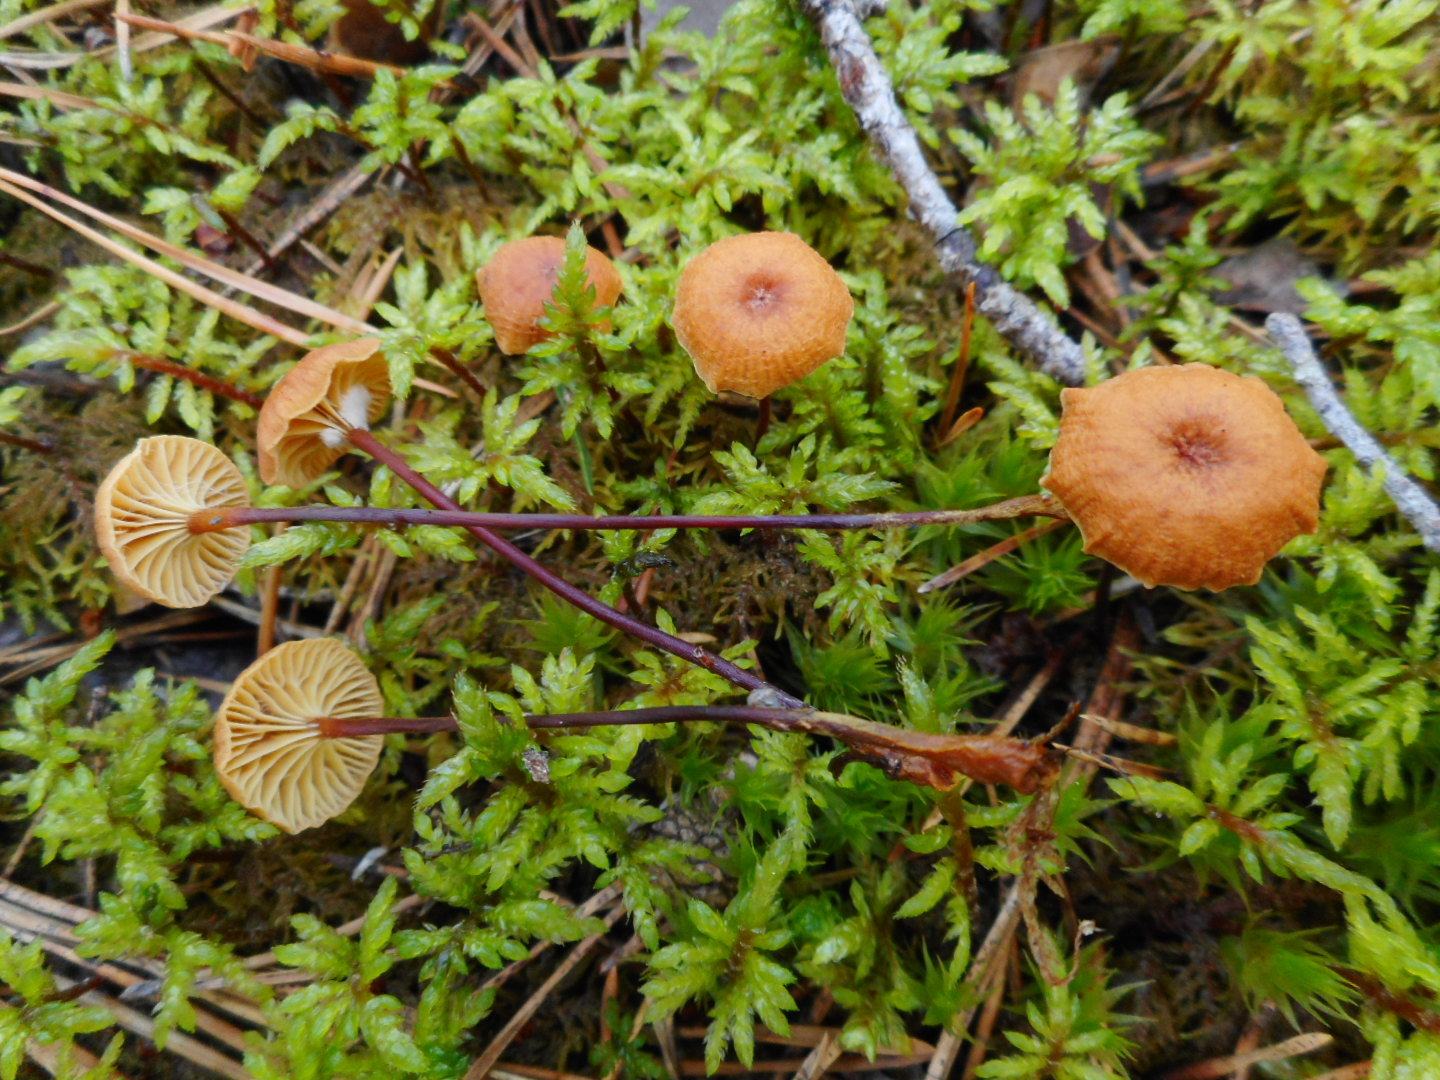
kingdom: Fungi
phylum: Basidiomycota
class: Agaricomycetes
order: Agaricales
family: Mycenaceae
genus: Xeromphalina
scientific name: Xeromphalina cauticinalis
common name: Pinelitter gingertail
